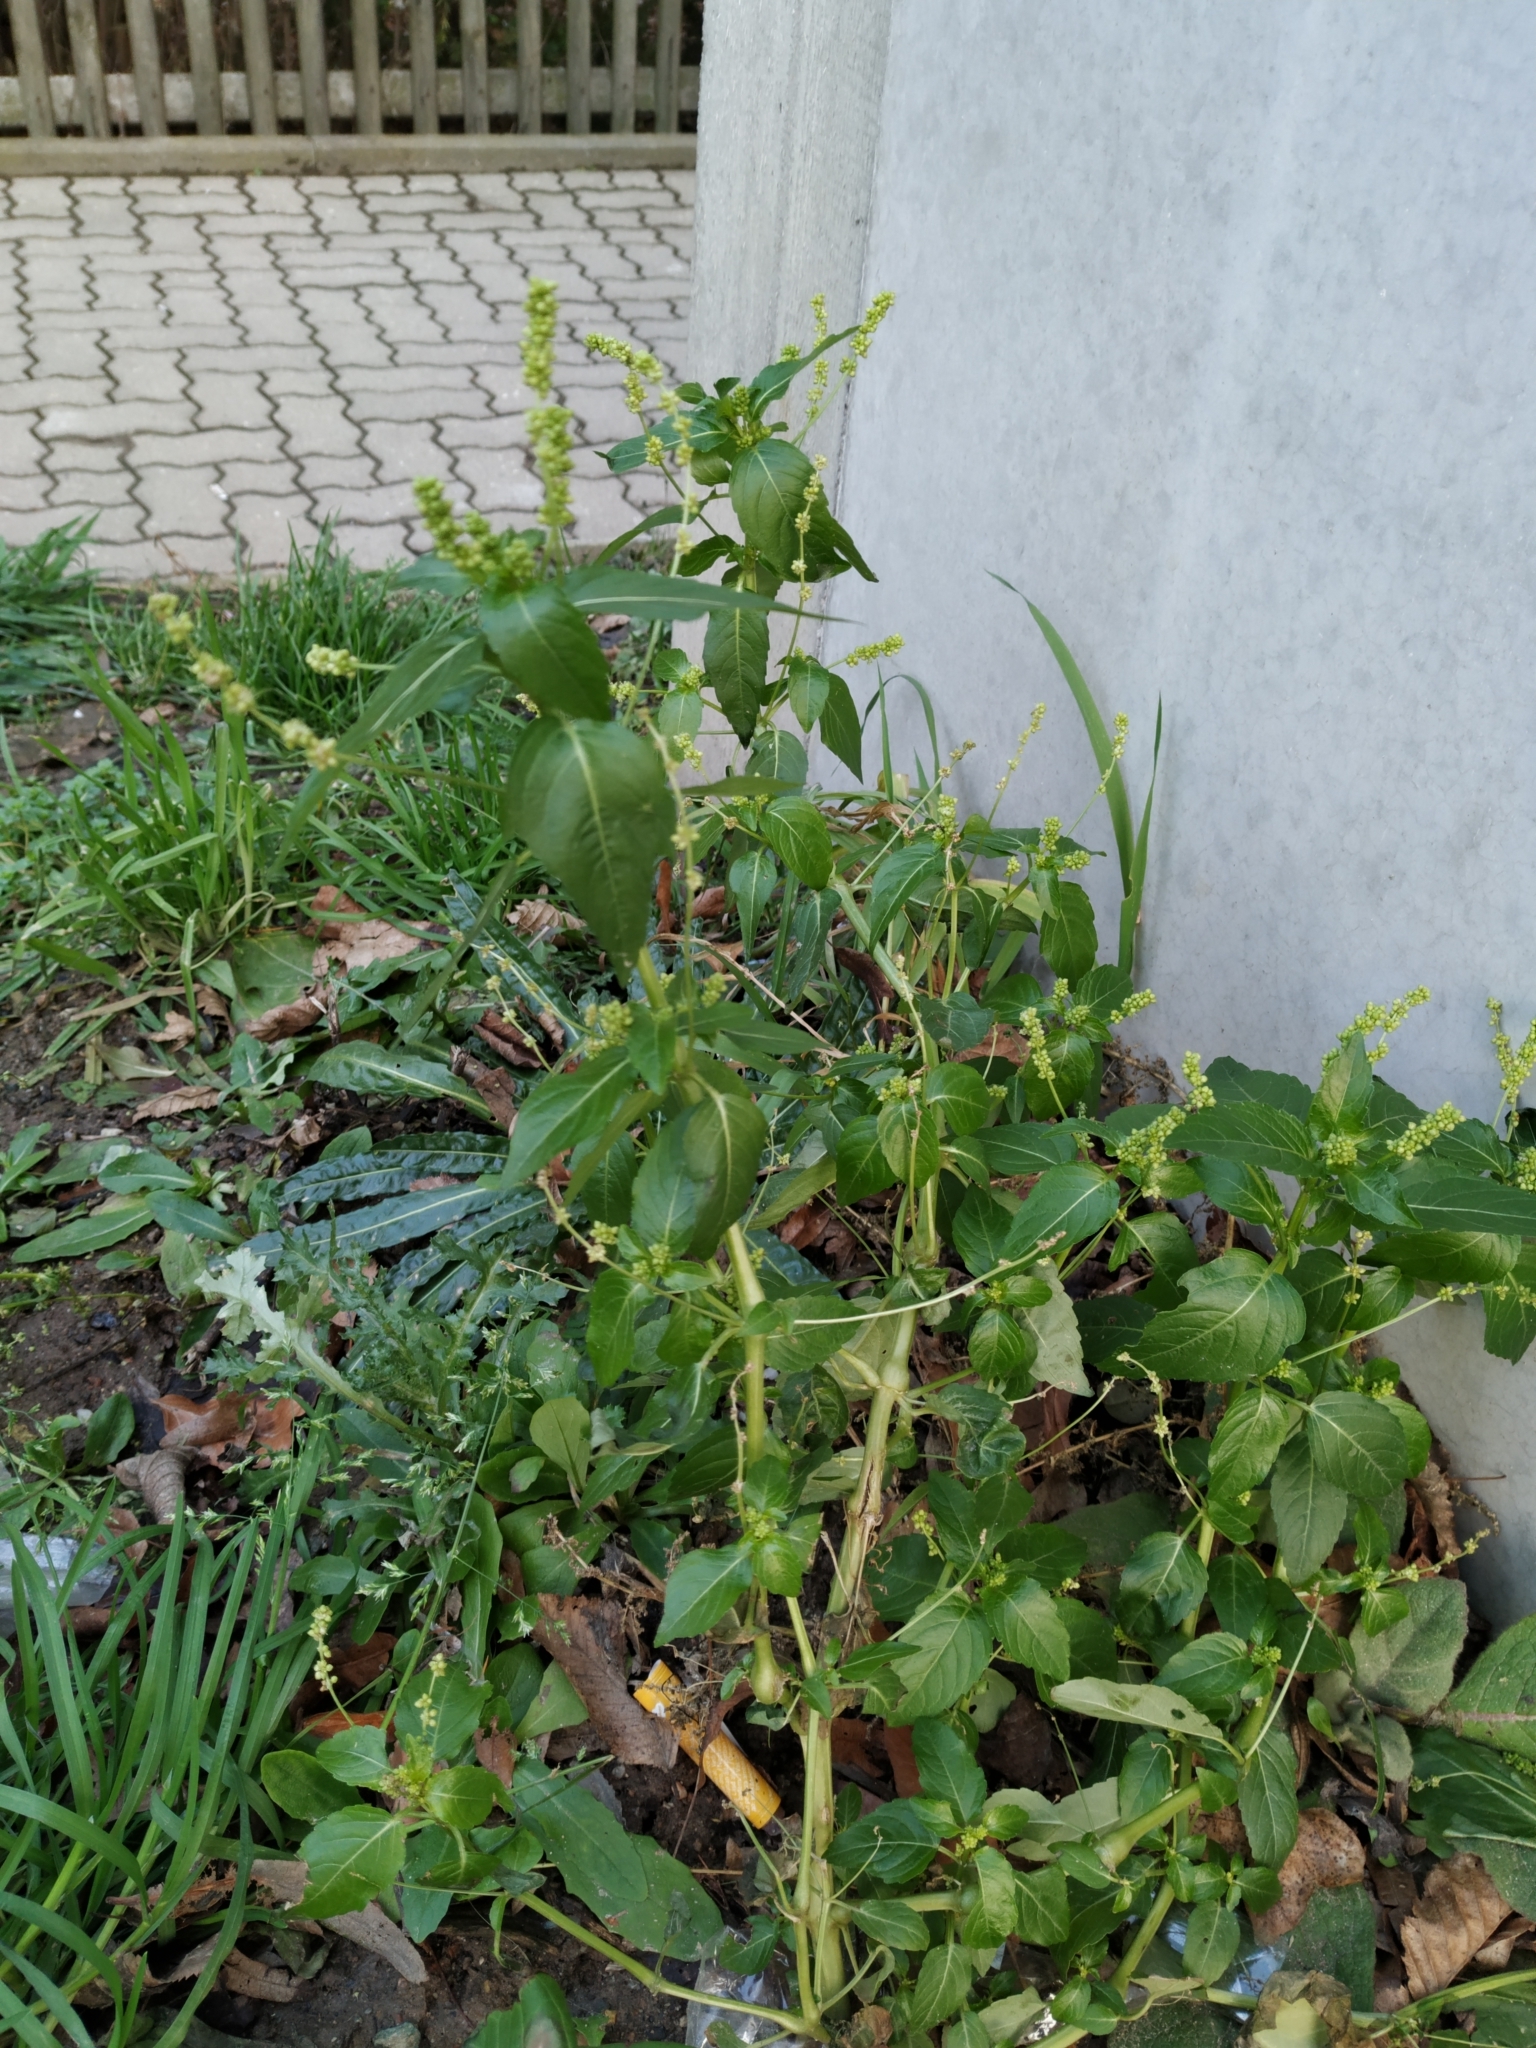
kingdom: Plantae
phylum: Tracheophyta
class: Magnoliopsida
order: Malpighiales
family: Euphorbiaceae
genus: Mercurialis
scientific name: Mercurialis annua
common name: Annual mercury
